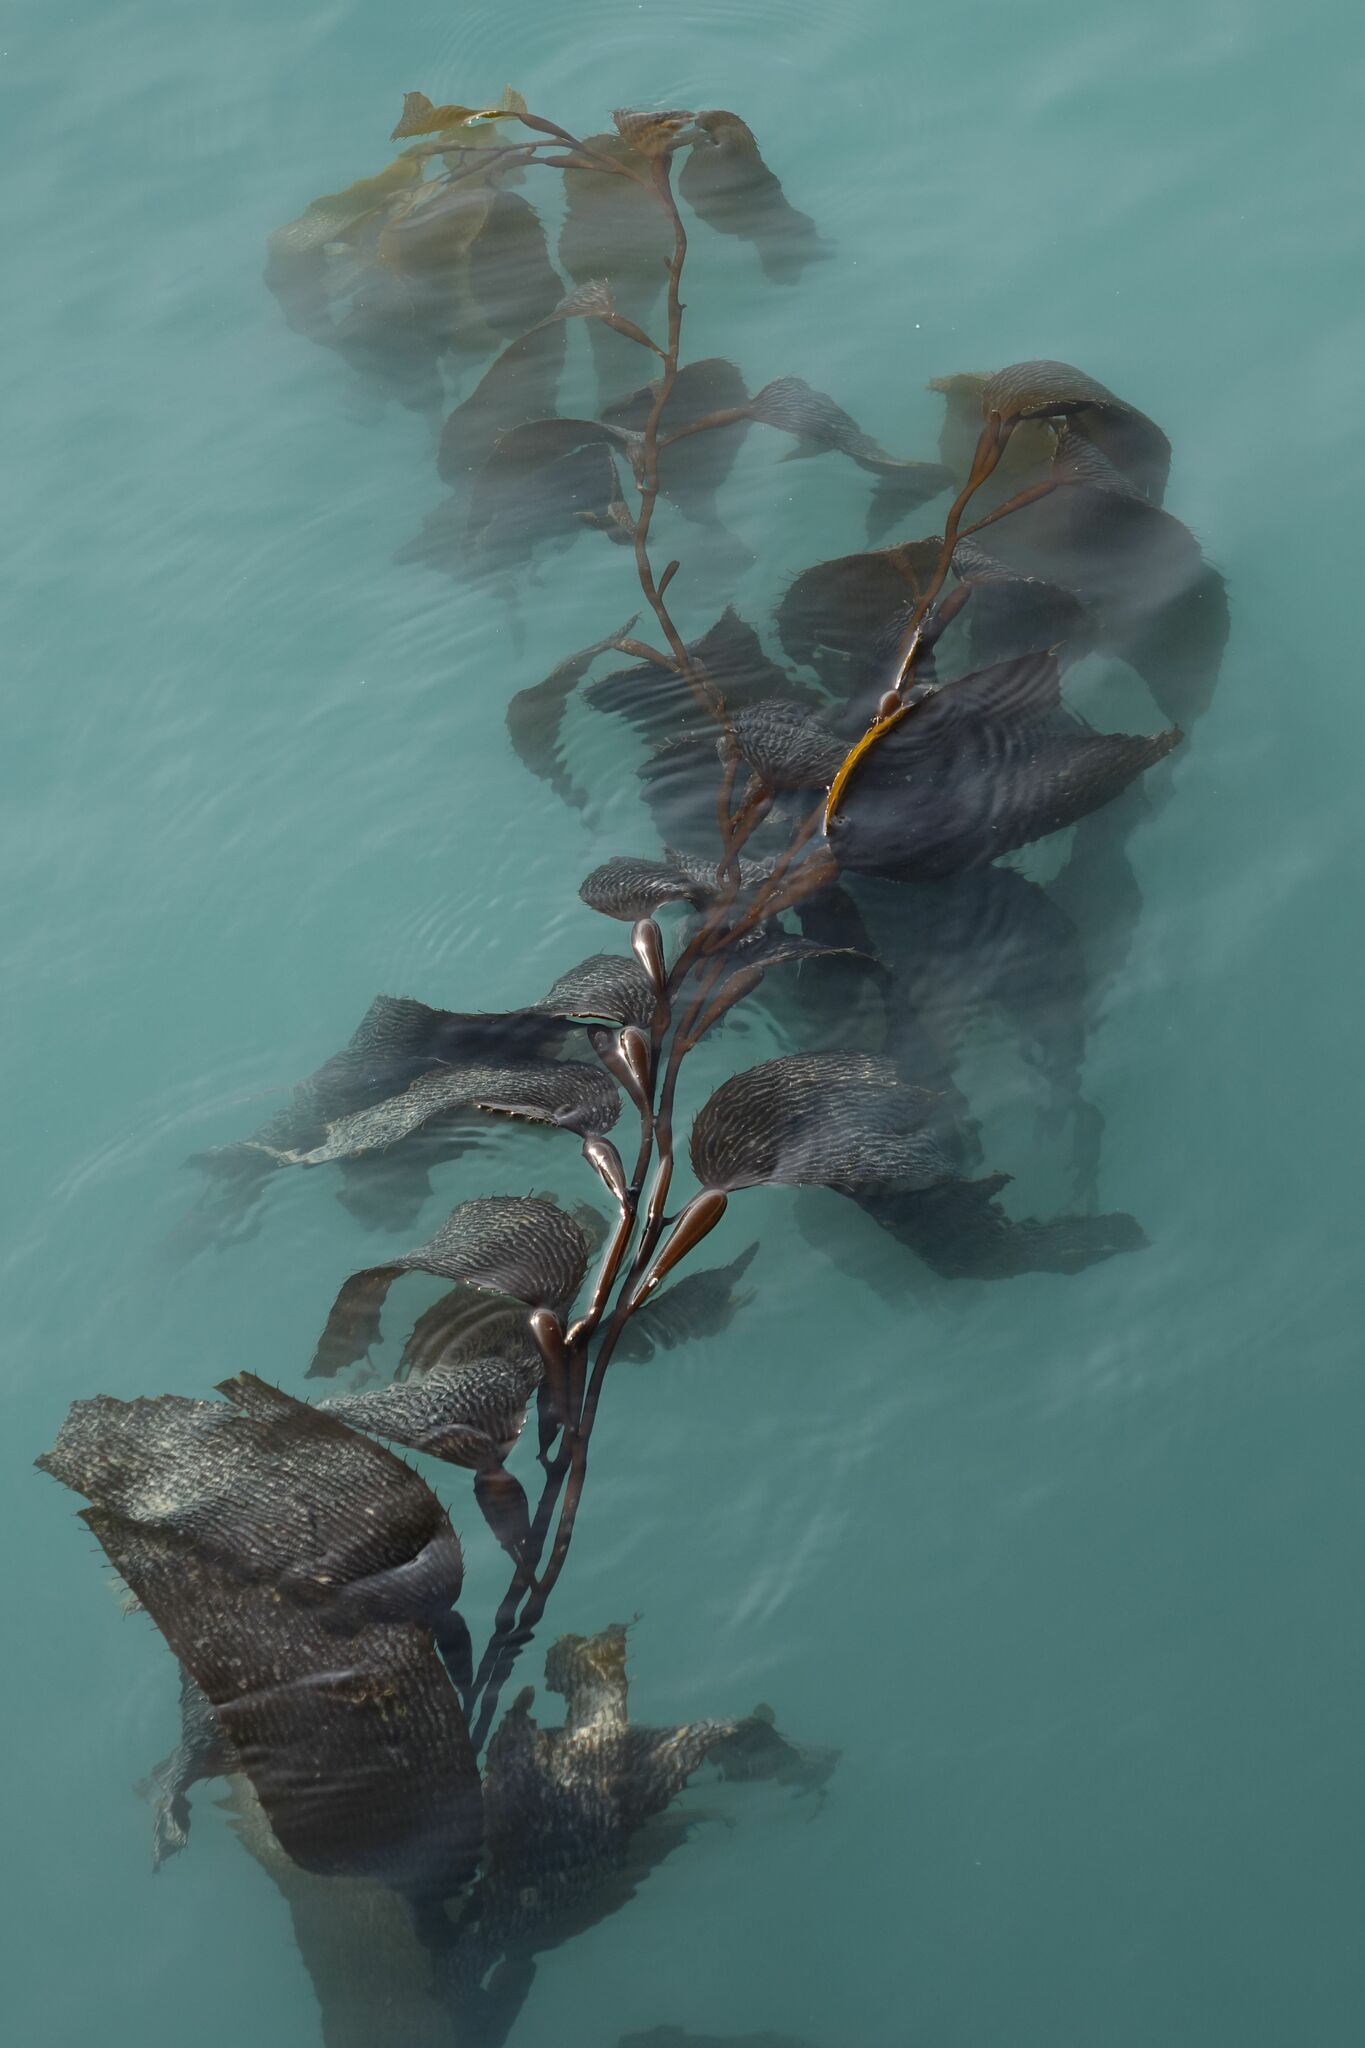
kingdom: Chromista
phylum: Ochrophyta
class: Phaeophyceae
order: Laminariales
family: Laminariaceae
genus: Macrocystis
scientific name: Macrocystis pyrifera
